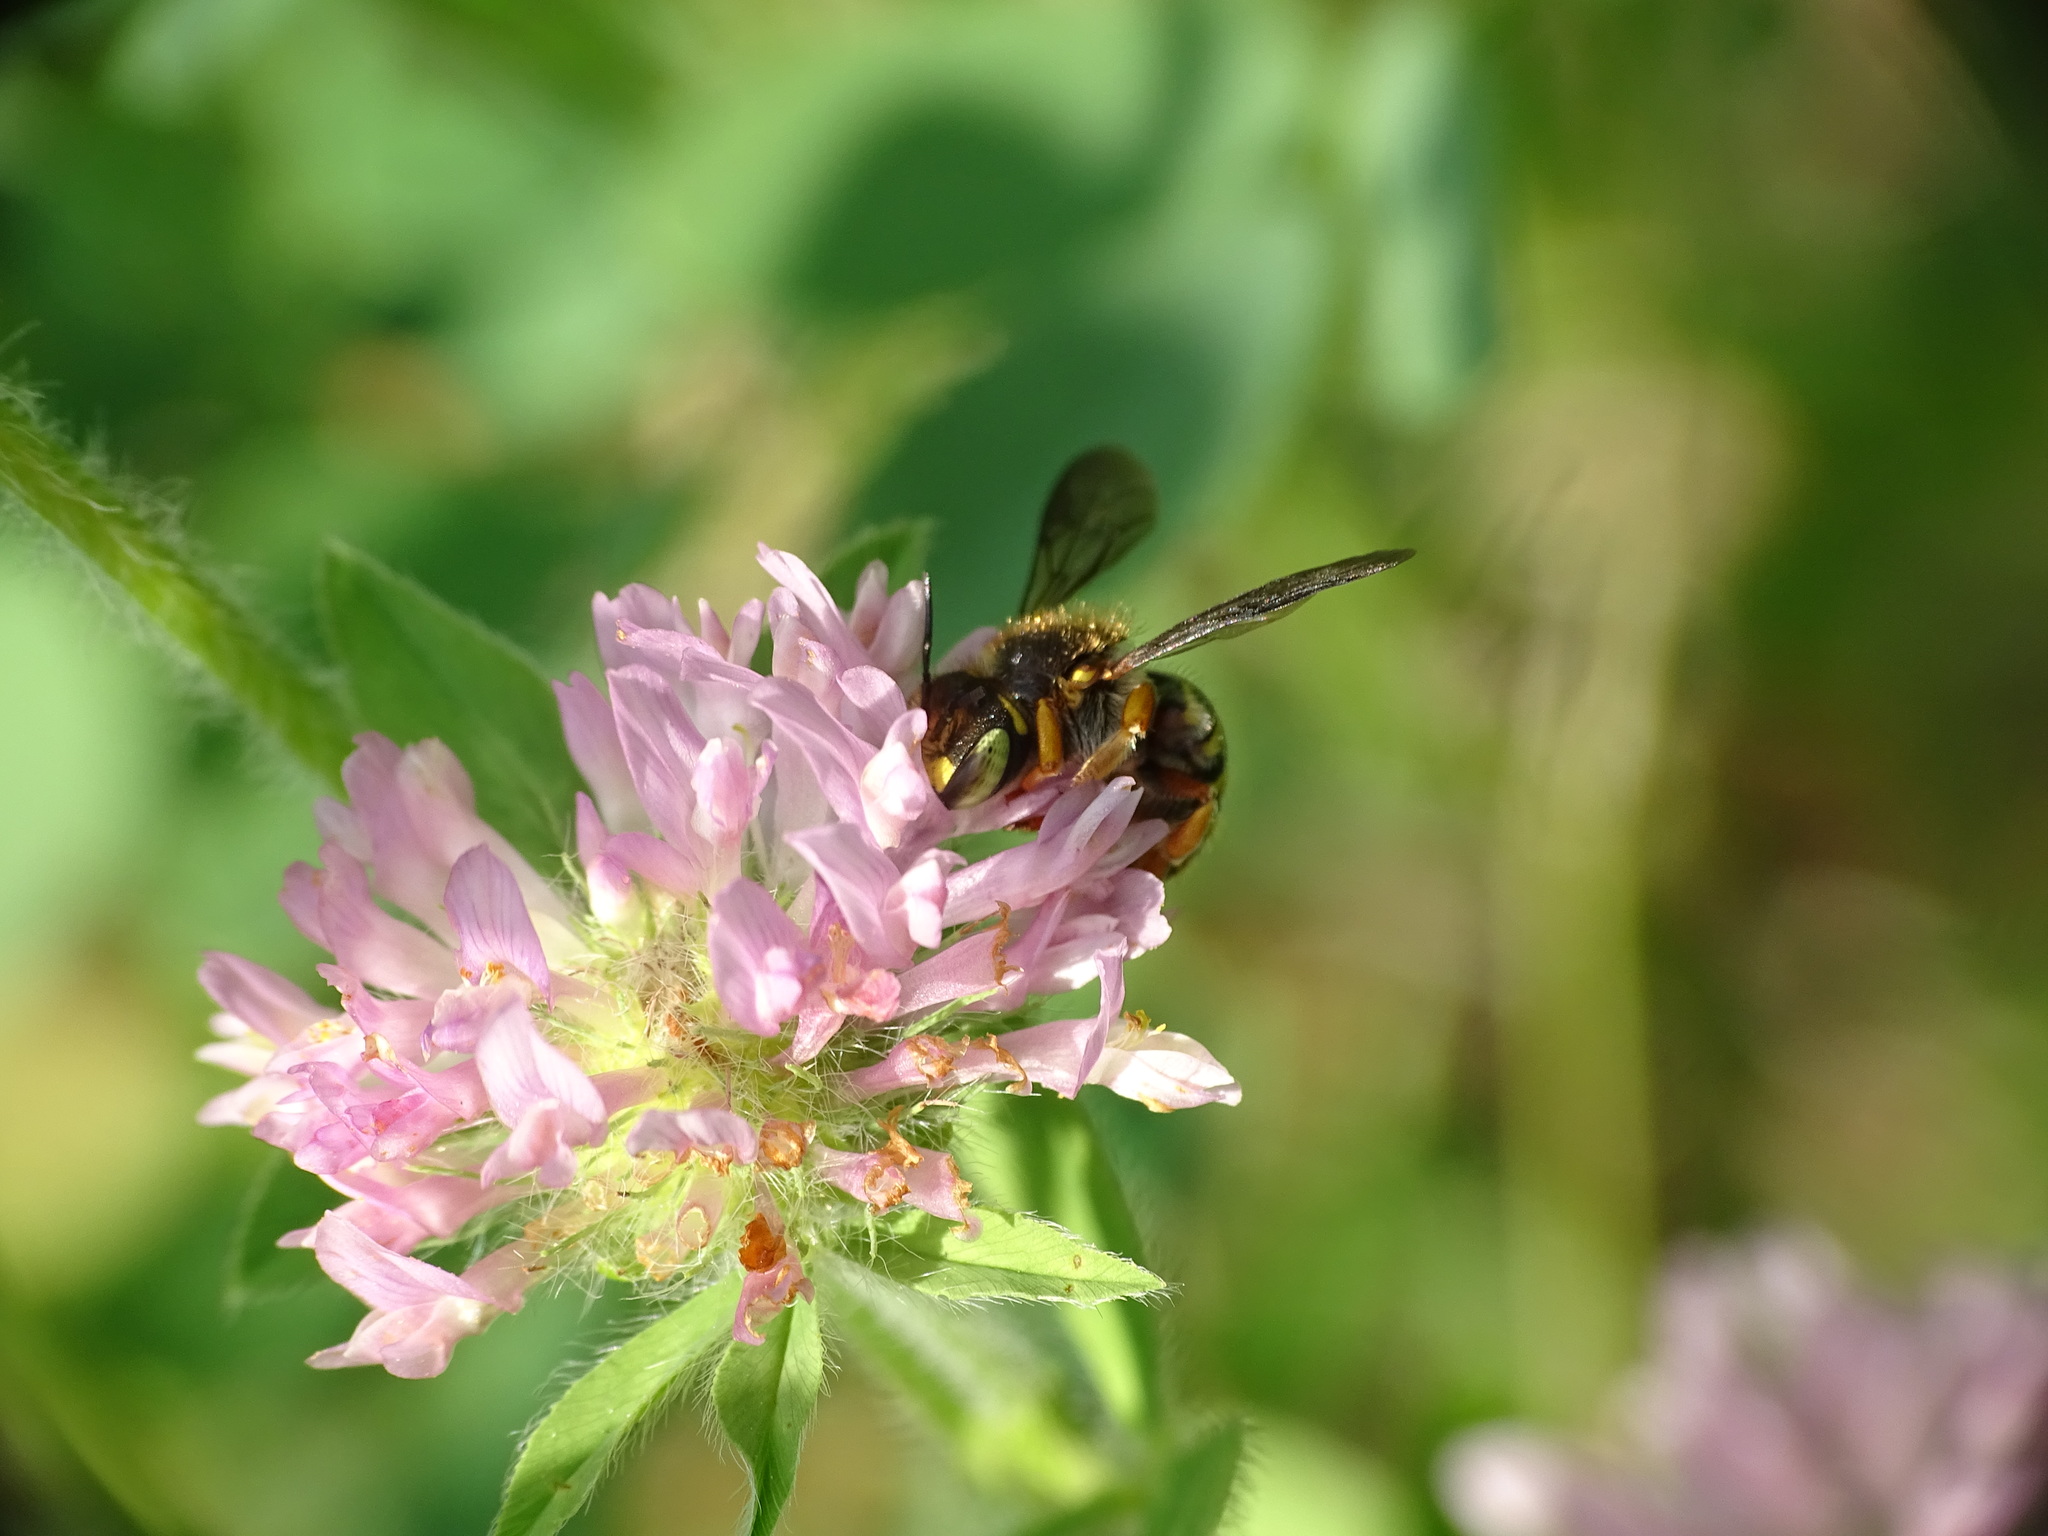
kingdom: Animalia
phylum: Arthropoda
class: Insecta
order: Hymenoptera
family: Megachilidae
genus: Anthidium
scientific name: Anthidium oblongatum
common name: Oblong wool carder bee
